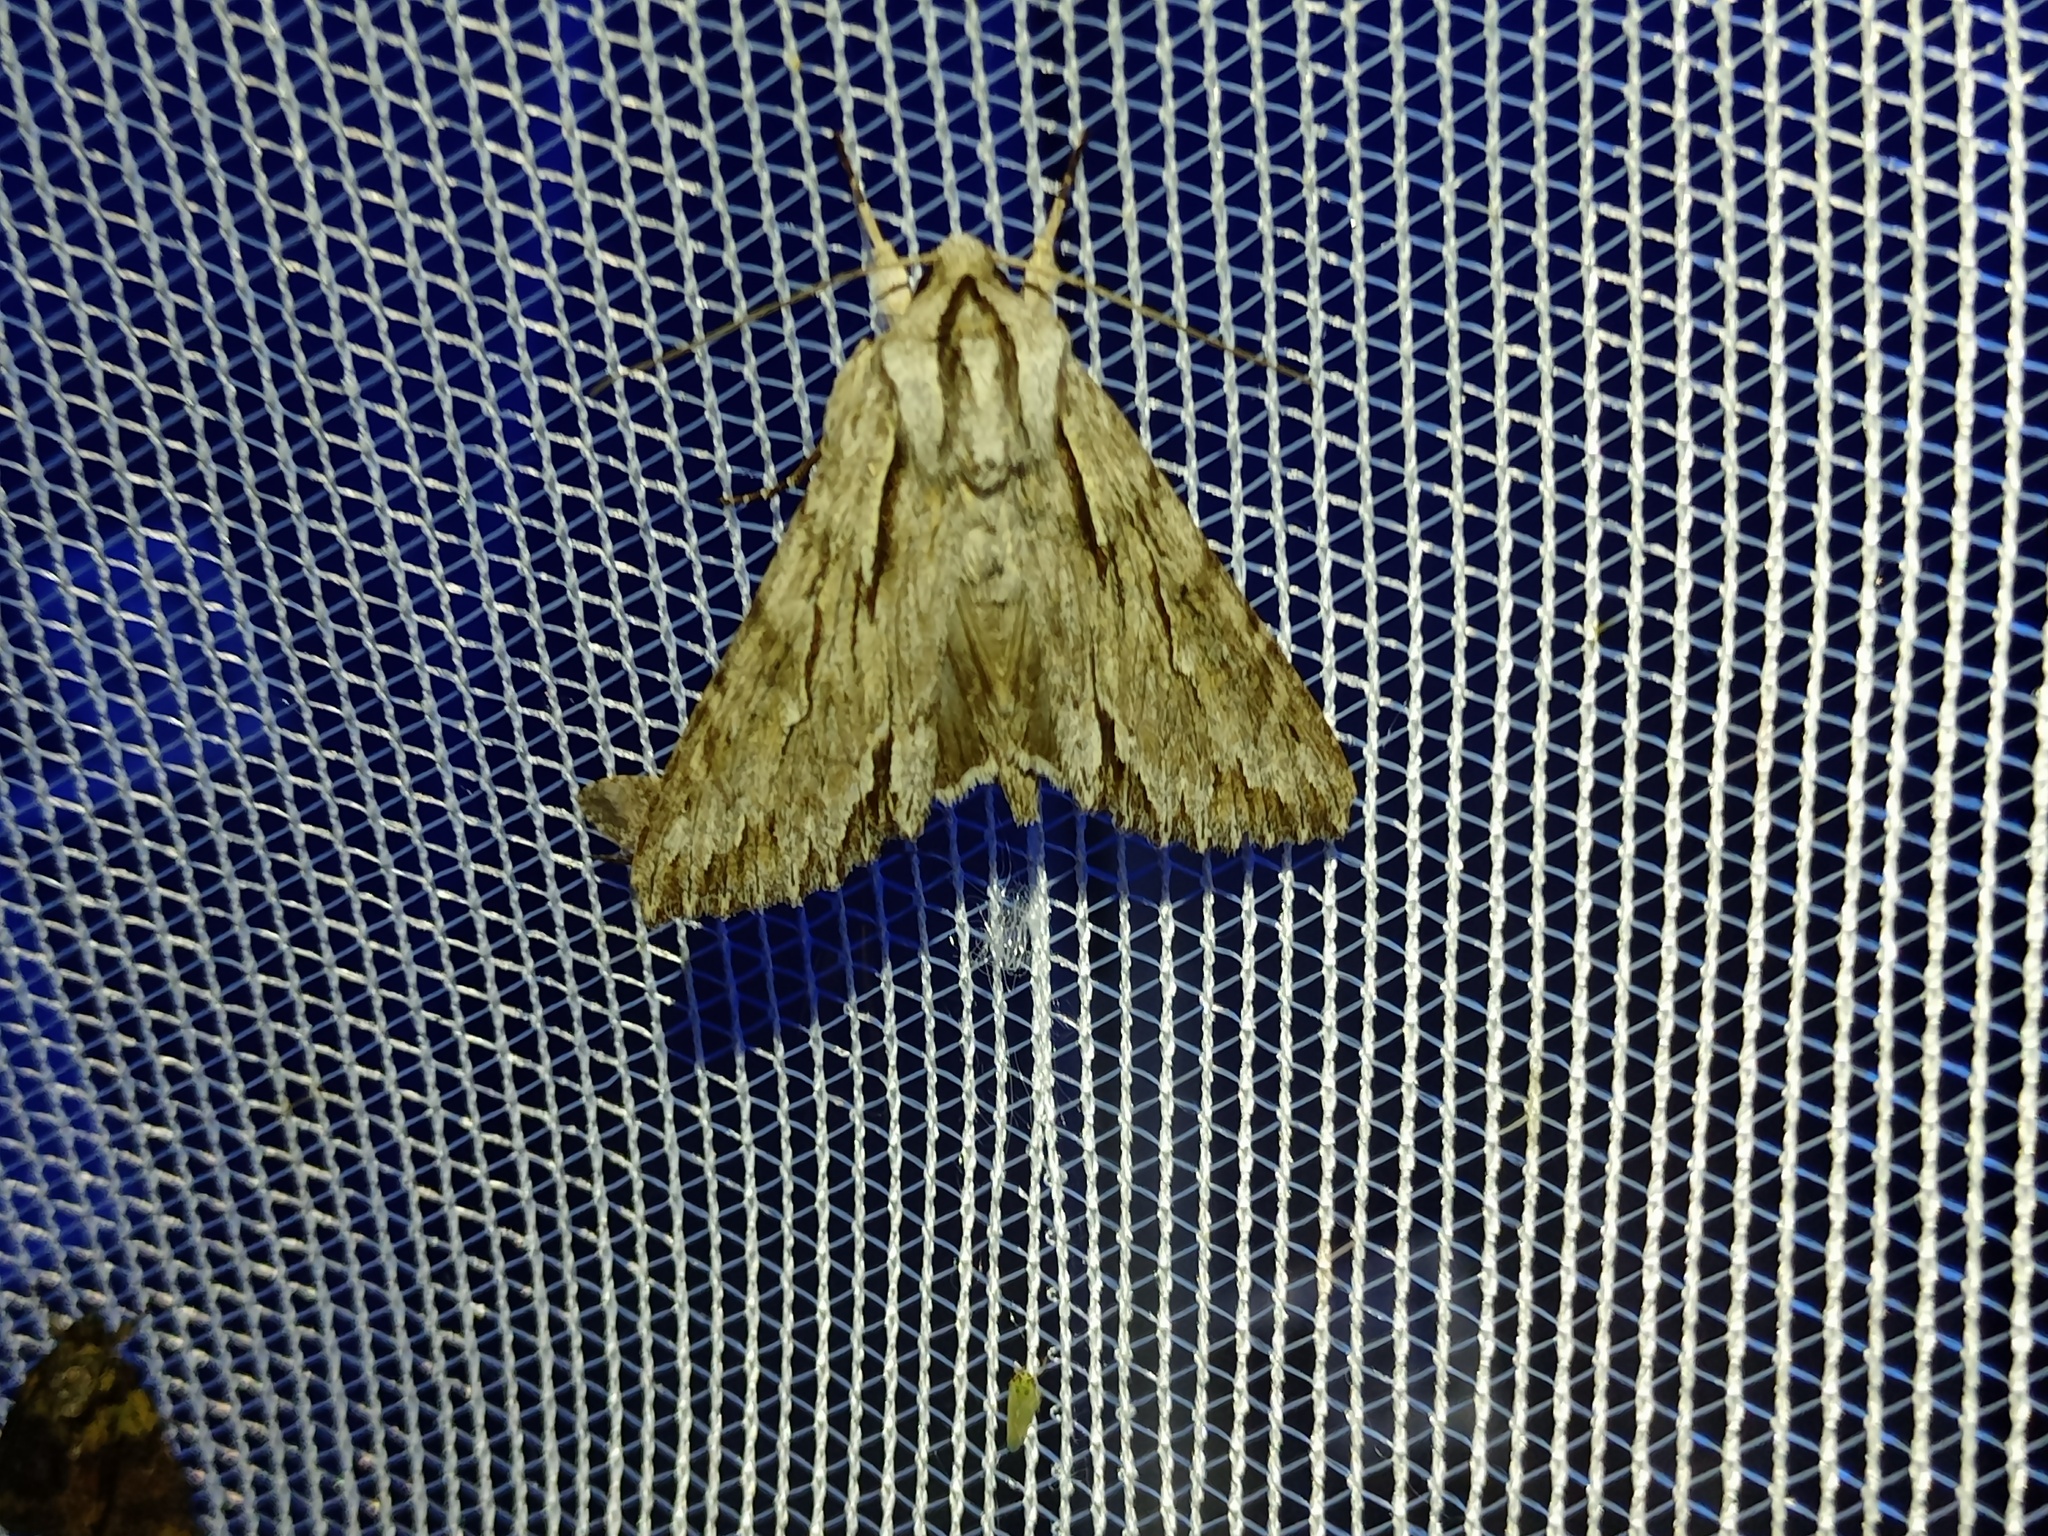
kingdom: Animalia
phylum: Arthropoda
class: Insecta
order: Lepidoptera
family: Noctuidae
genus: Auchmis
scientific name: Auchmis detersa
